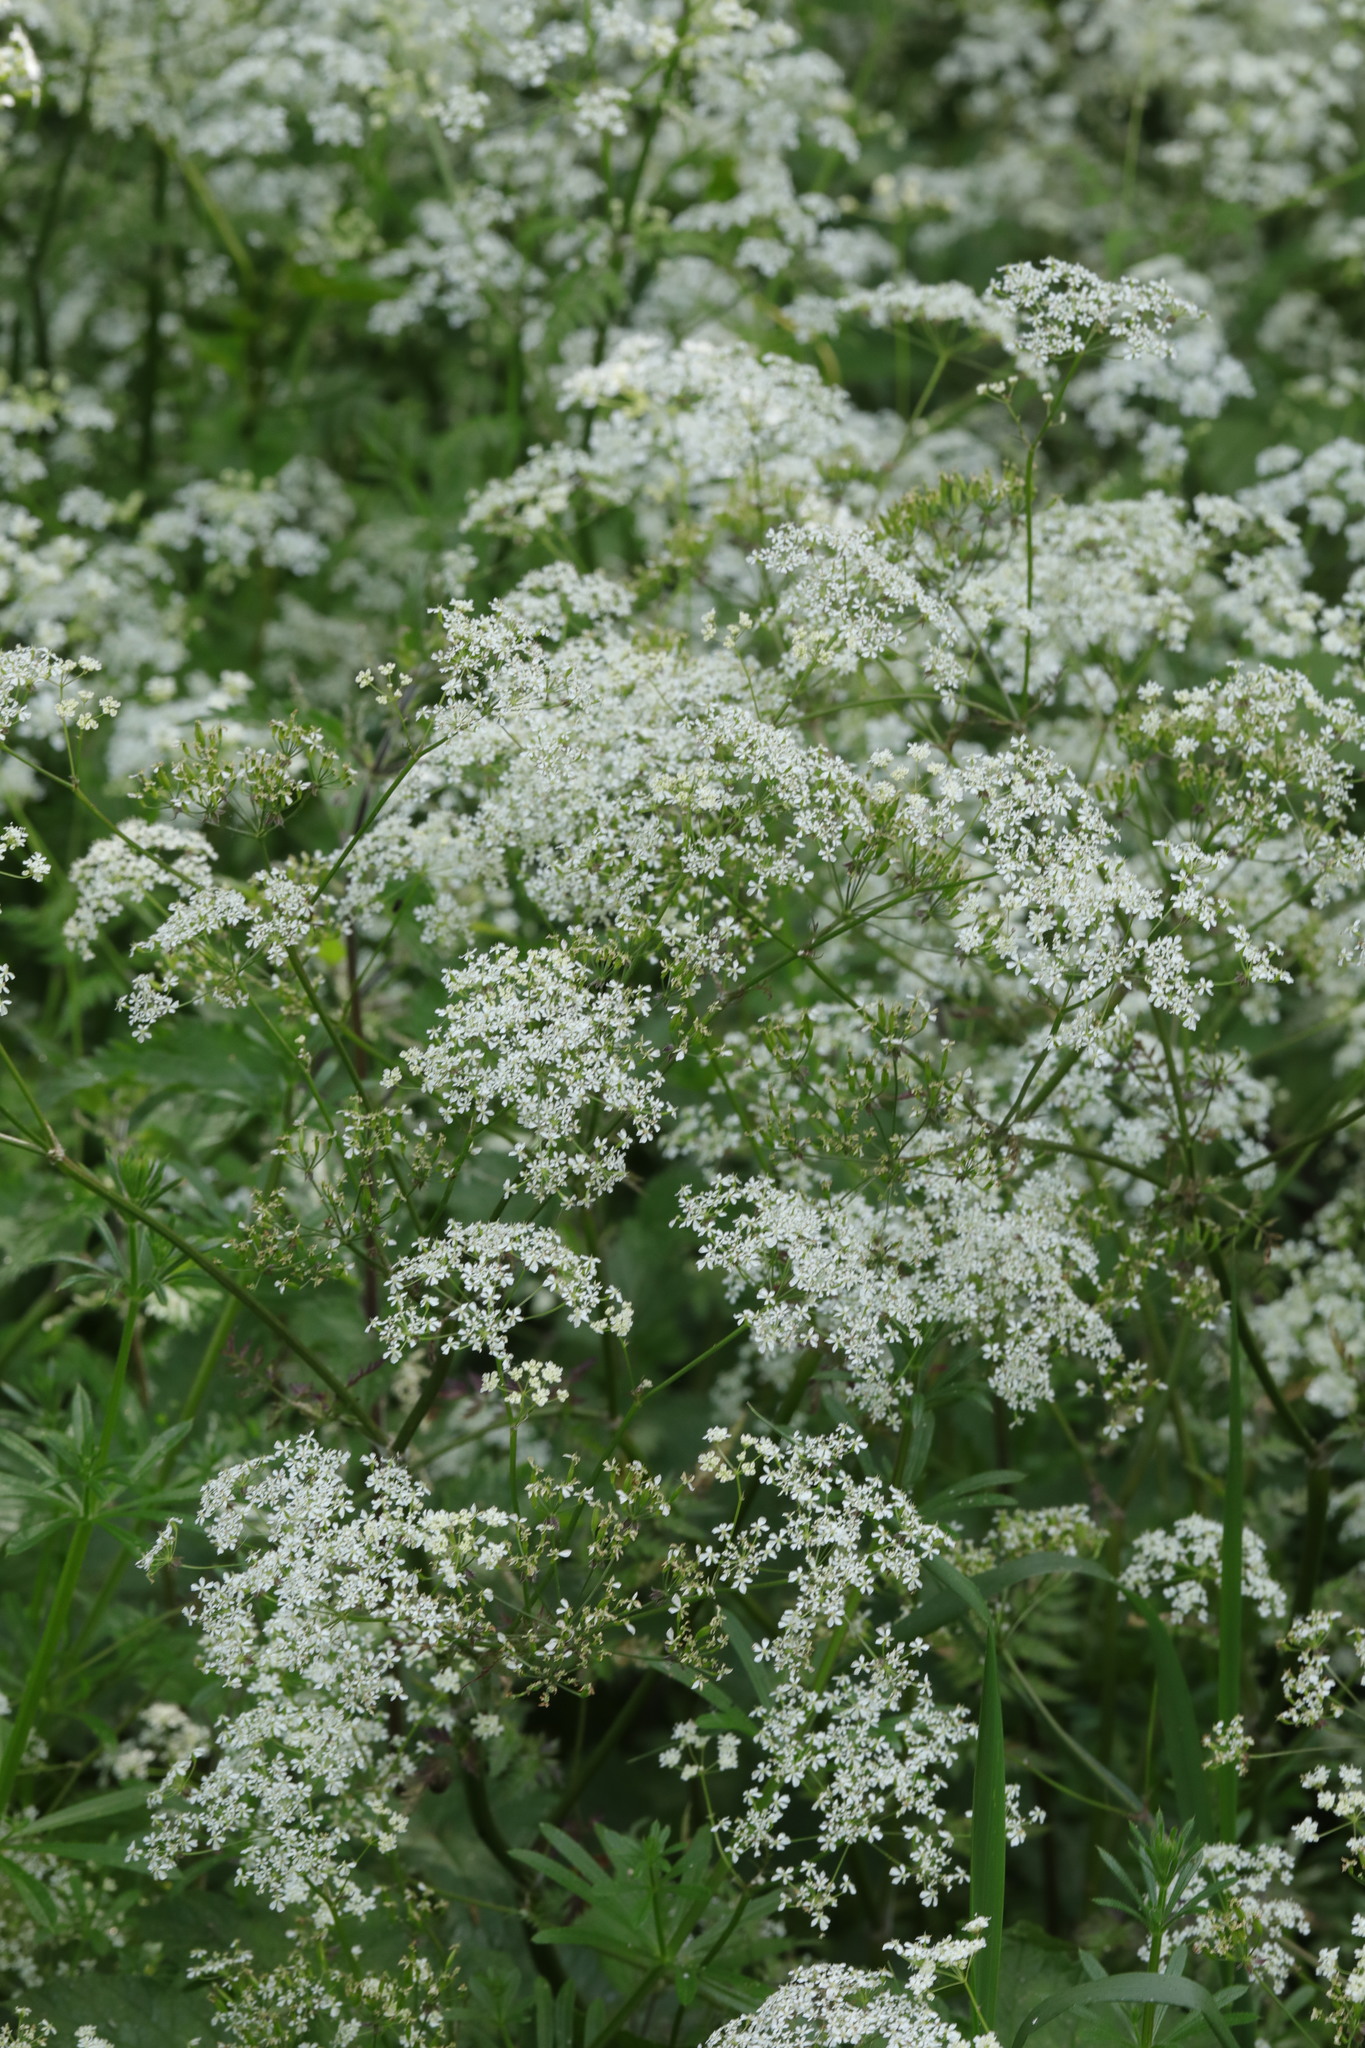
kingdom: Plantae
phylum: Tracheophyta
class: Magnoliopsida
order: Apiales
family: Apiaceae
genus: Anthriscus
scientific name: Anthriscus sylvestris
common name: Cow parsley
